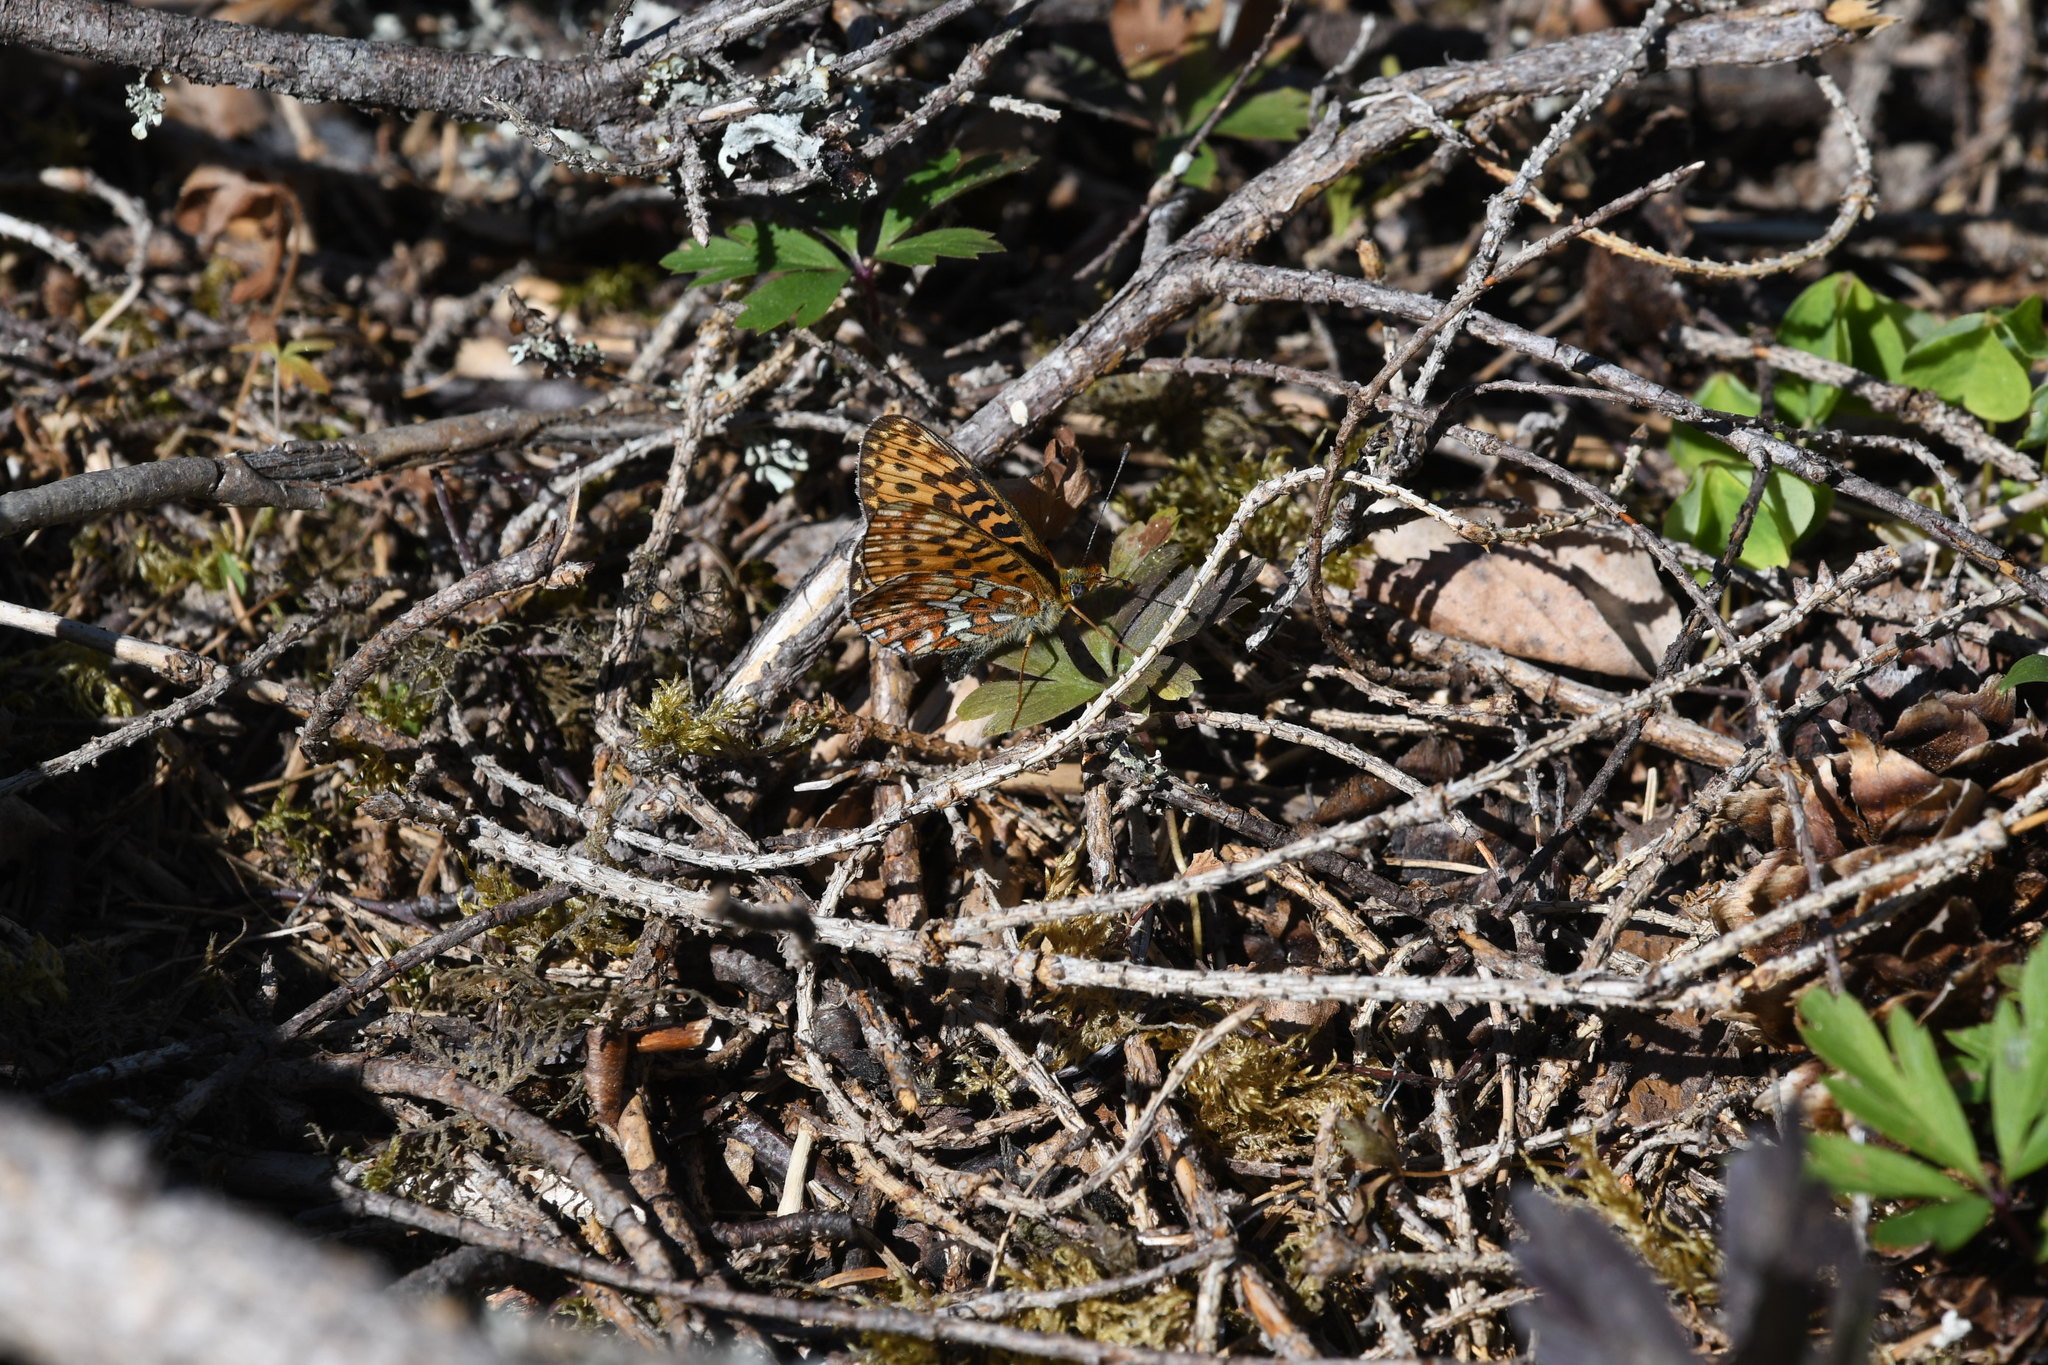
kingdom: Animalia
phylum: Arthropoda
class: Insecta
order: Lepidoptera
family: Nymphalidae
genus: Clossiana
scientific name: Clossiana euphrosyne
